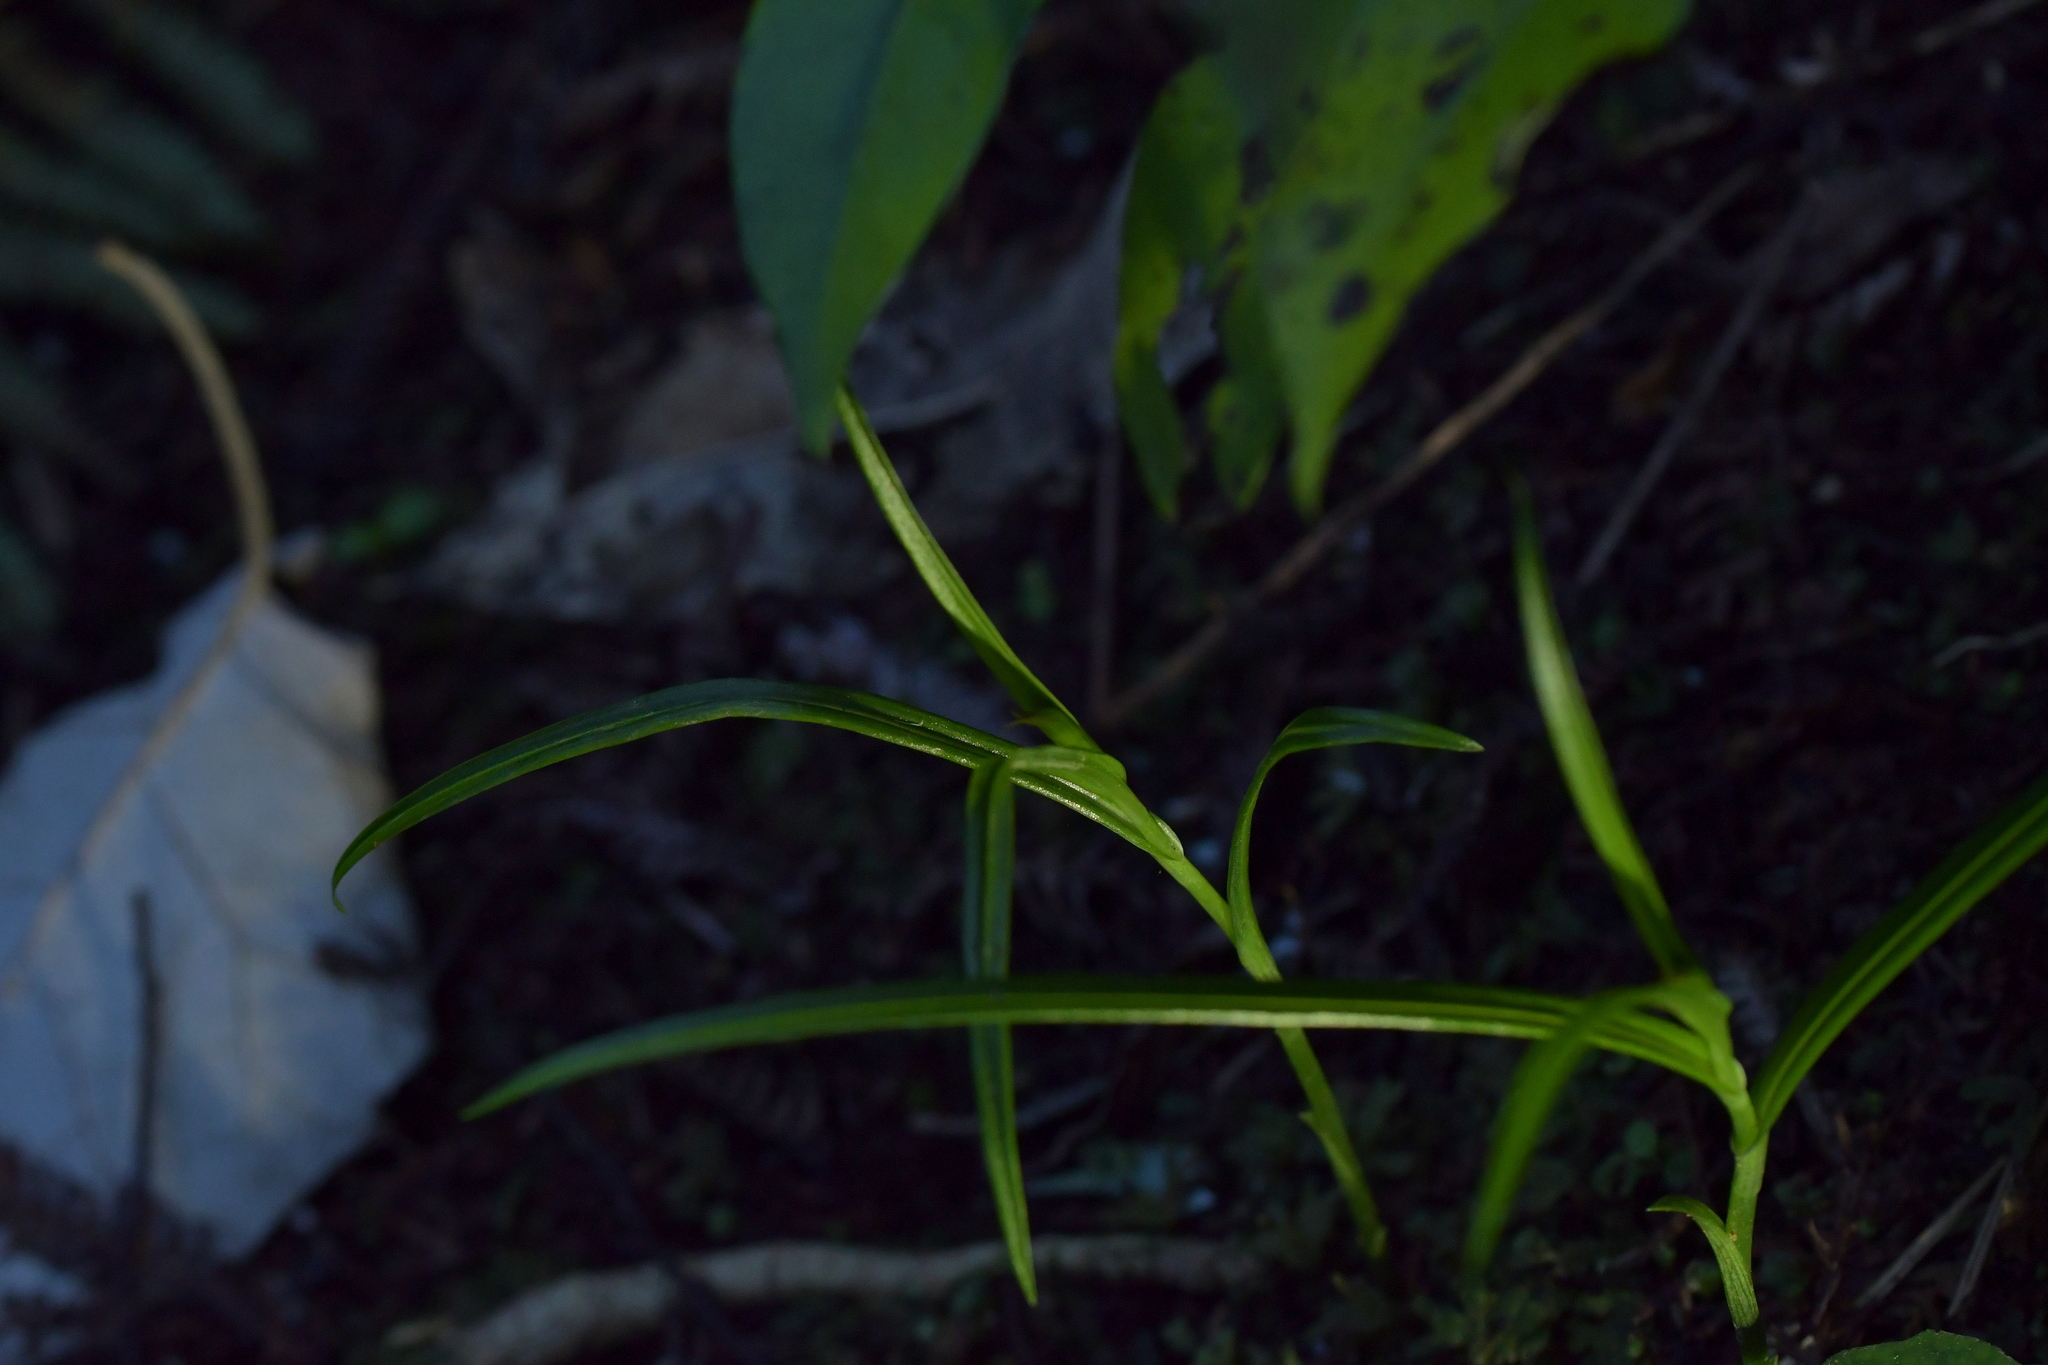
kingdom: Plantae
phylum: Tracheophyta
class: Liliopsida
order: Asparagales
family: Orchidaceae
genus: Pterostylis
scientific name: Pterostylis graminea
